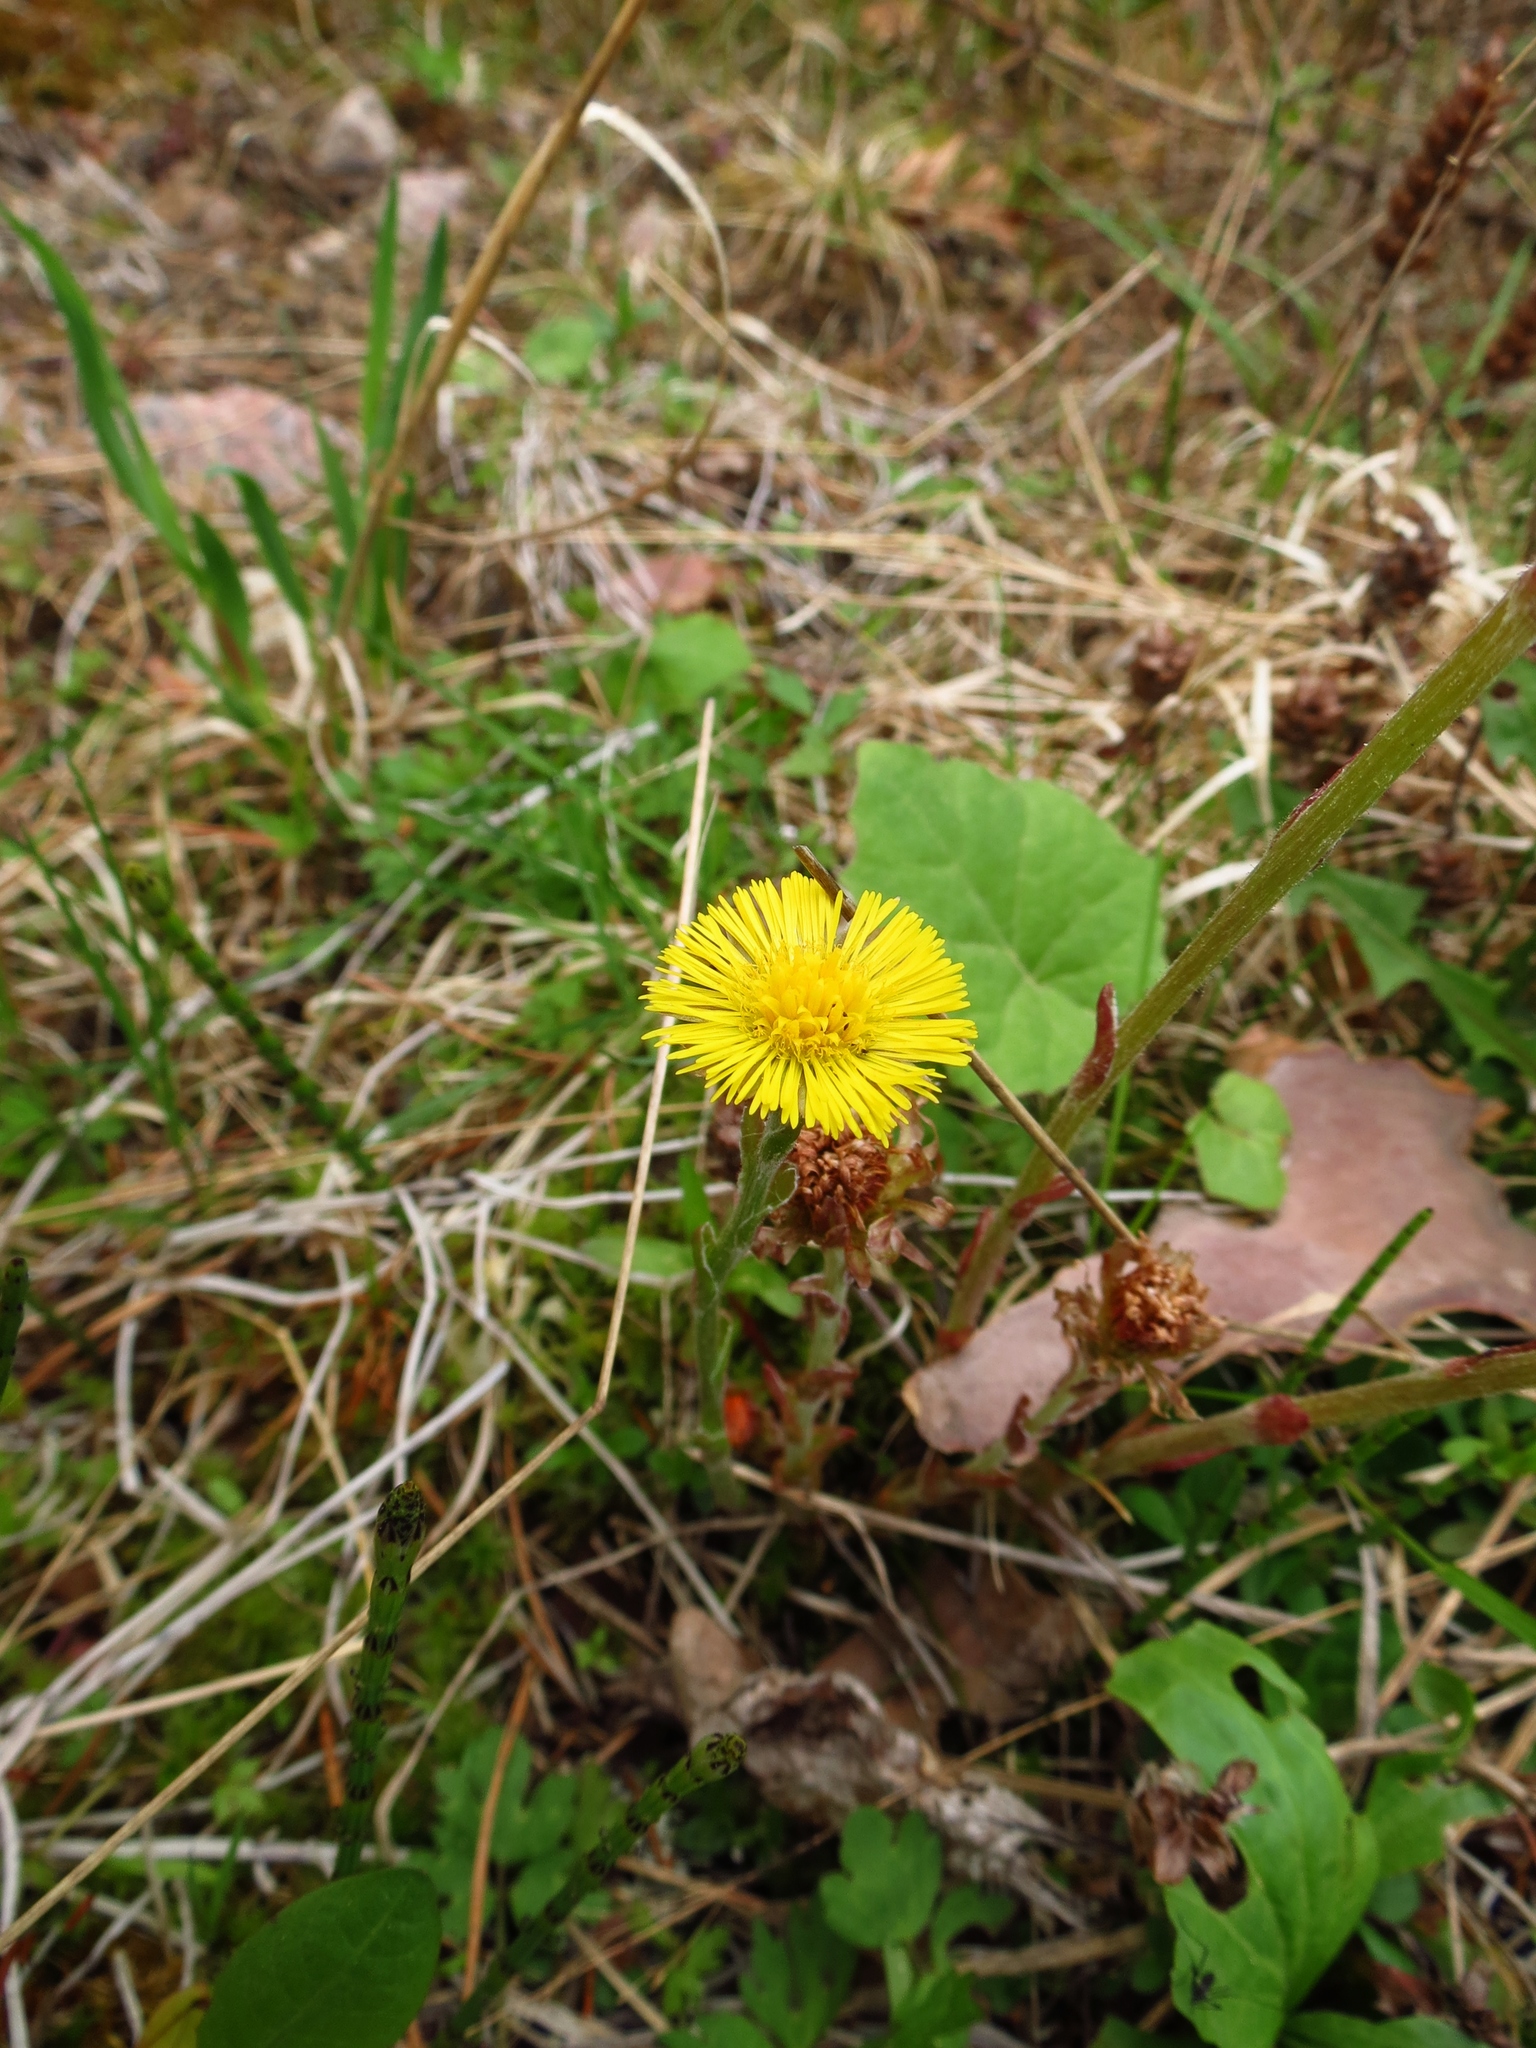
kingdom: Plantae
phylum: Tracheophyta
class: Magnoliopsida
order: Asterales
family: Asteraceae
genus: Tussilago
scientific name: Tussilago farfara
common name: Coltsfoot
